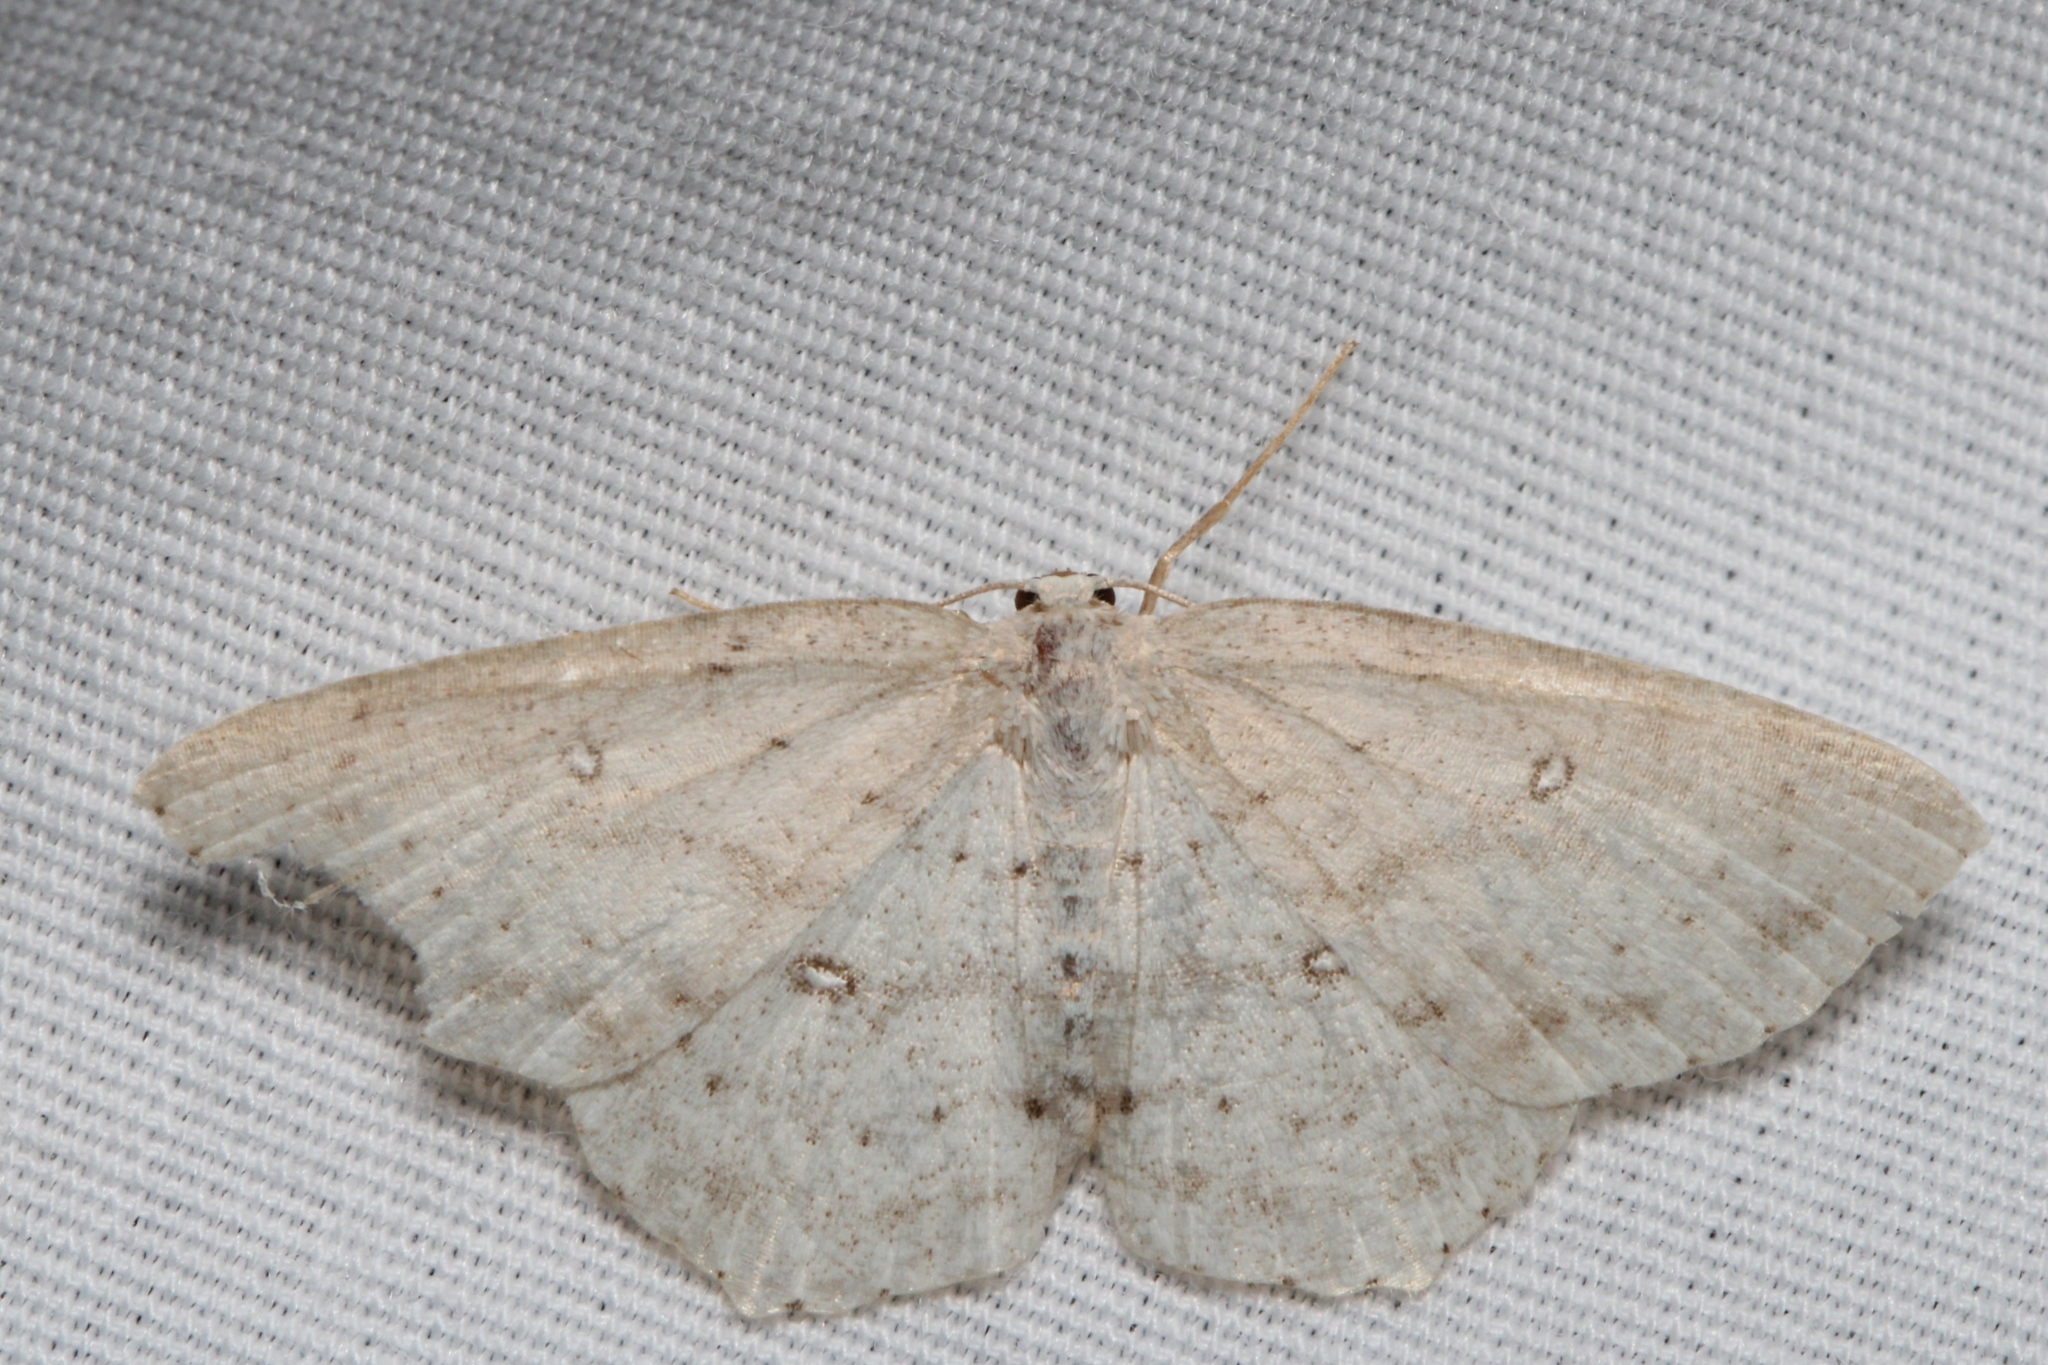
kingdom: Animalia
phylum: Arthropoda
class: Insecta
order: Lepidoptera
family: Geometridae
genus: Cyclophora
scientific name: Cyclophora pendulinaria
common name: Sweet fern geometer
